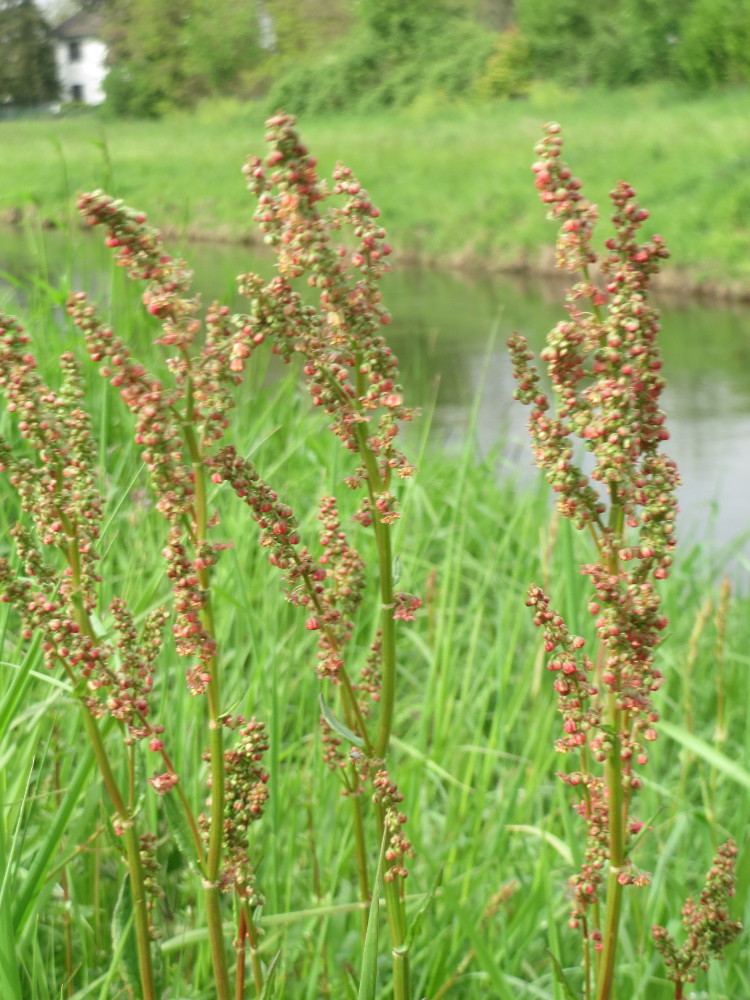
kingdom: Plantae
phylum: Tracheophyta
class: Magnoliopsida
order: Caryophyllales
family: Polygonaceae
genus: Rumex
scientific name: Rumex acetosa
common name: Garden sorrel
